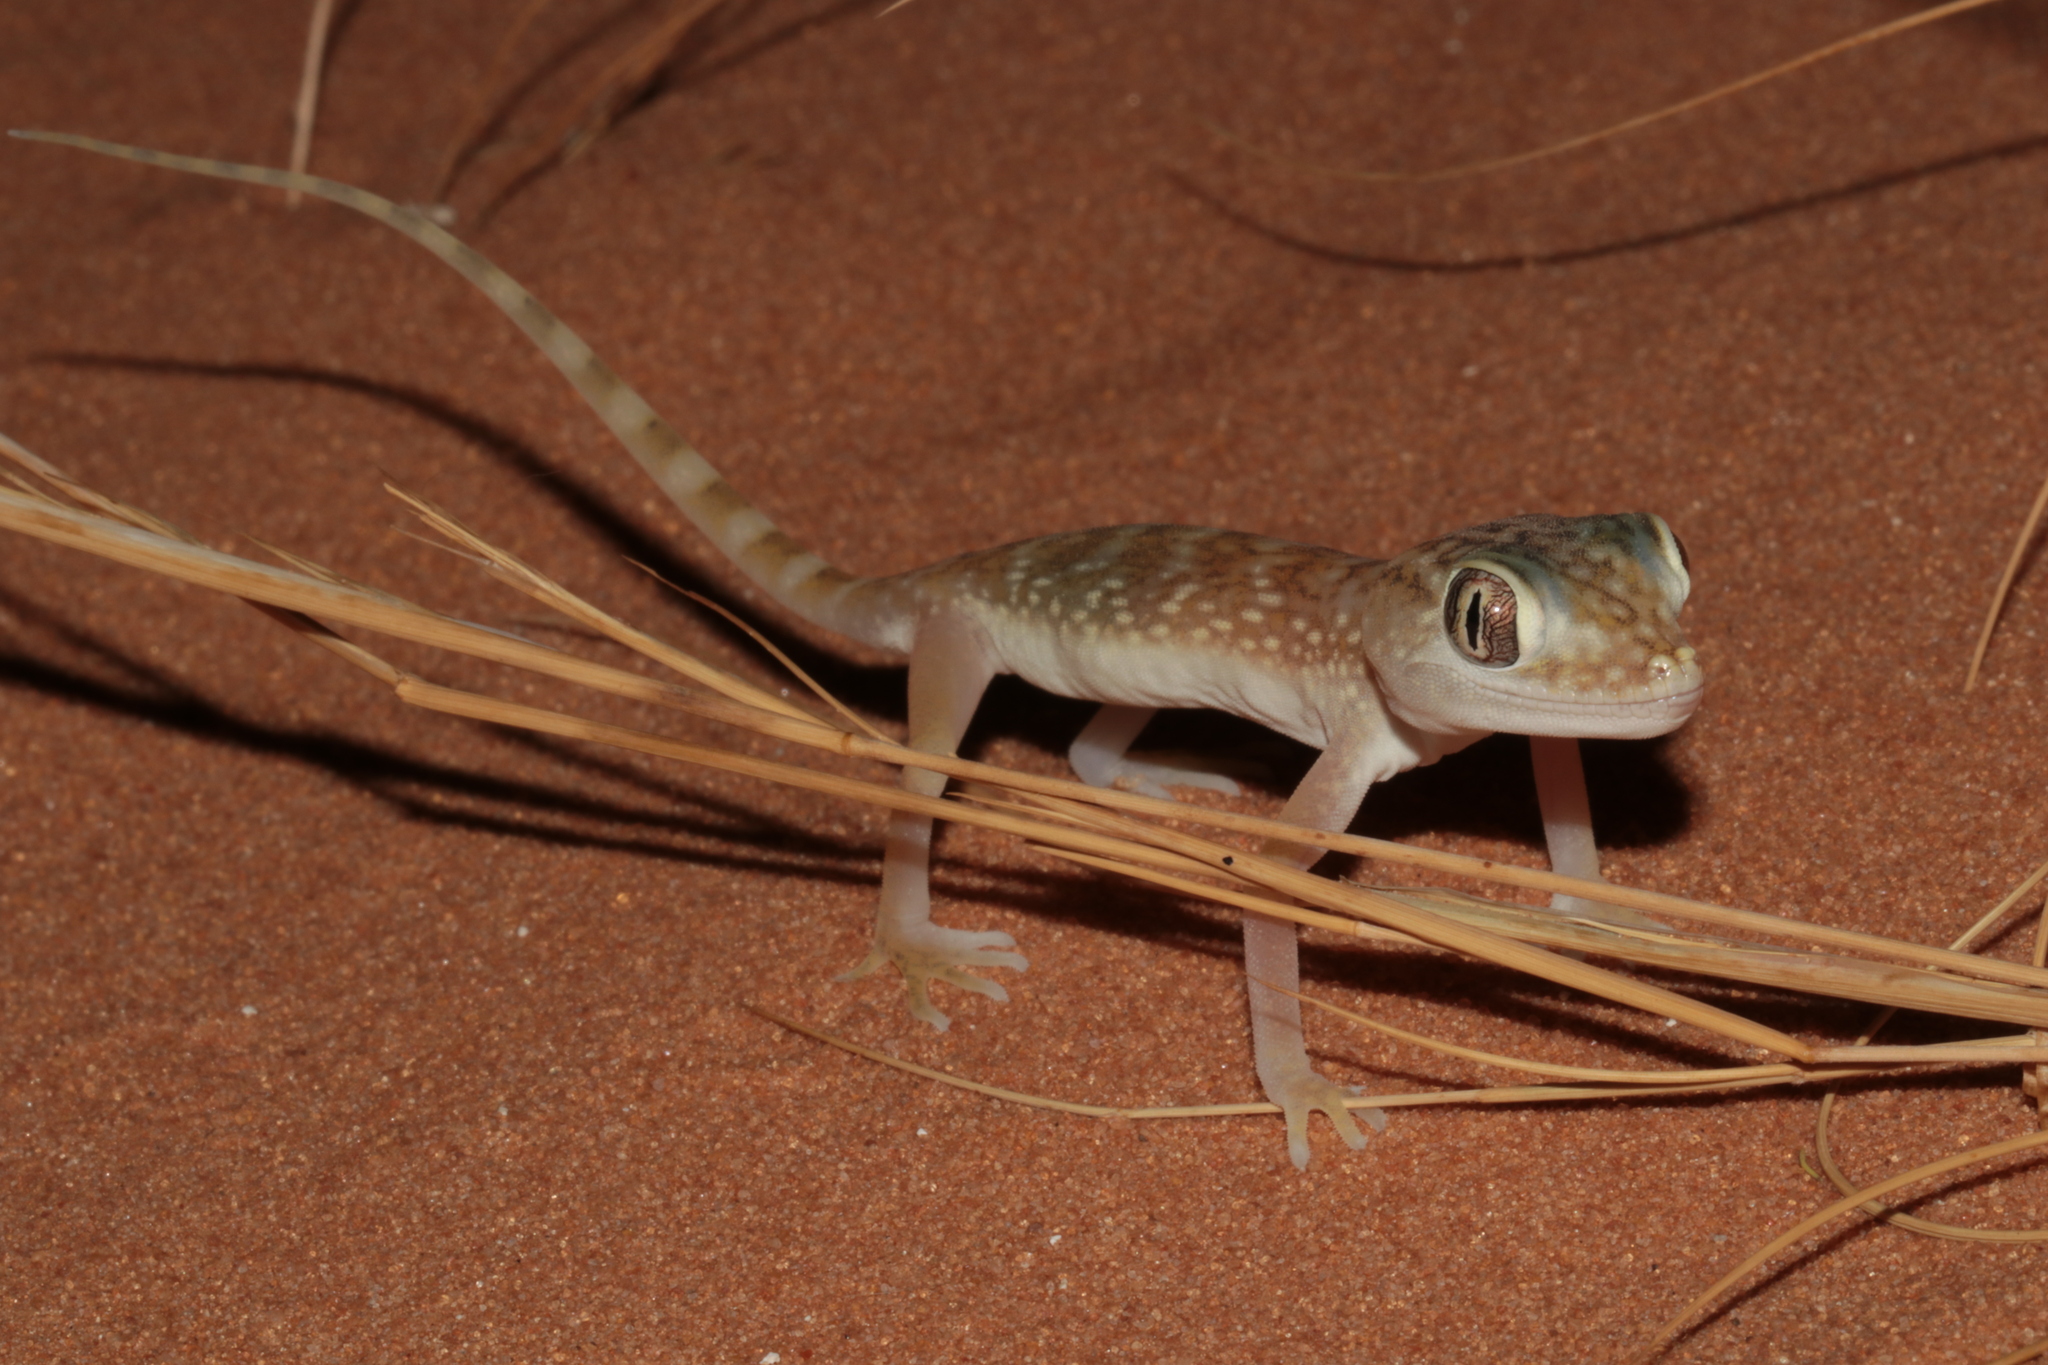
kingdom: Animalia
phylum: Chordata
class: Squamata
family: Gekkonidae
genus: Stenodactylus
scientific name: Stenodactylus doriae
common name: Dune sand gecko
